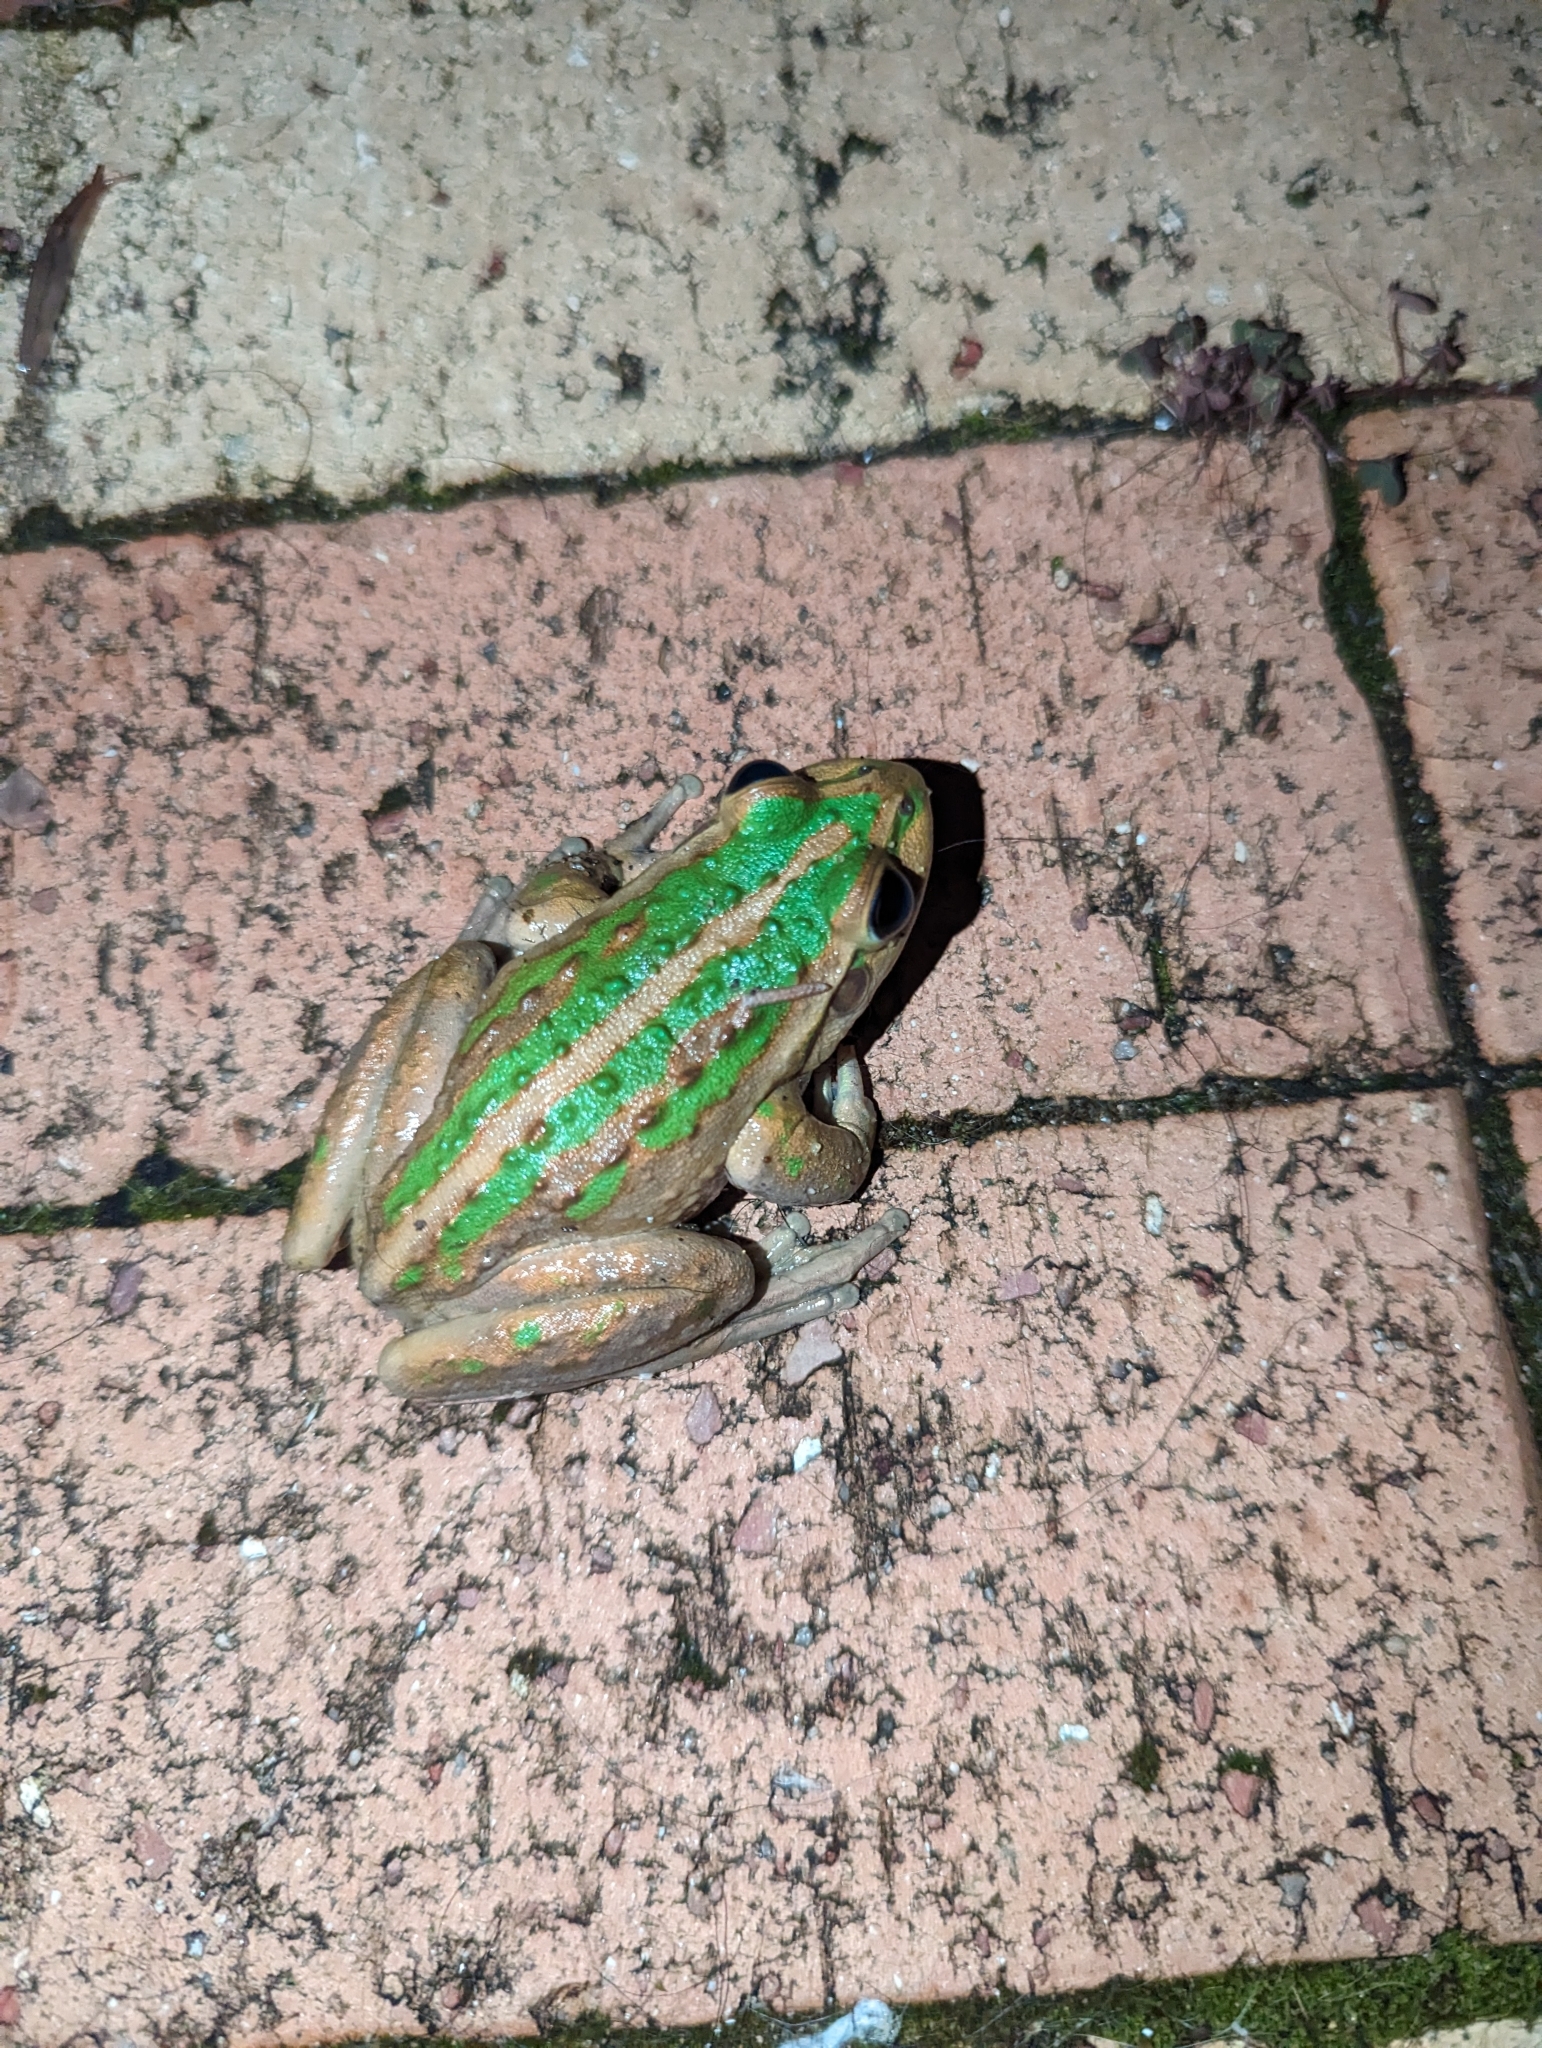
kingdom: Animalia
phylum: Chordata
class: Amphibia
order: Anura
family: Pelodryadidae
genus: Ranoidea
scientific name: Ranoidea moorei
